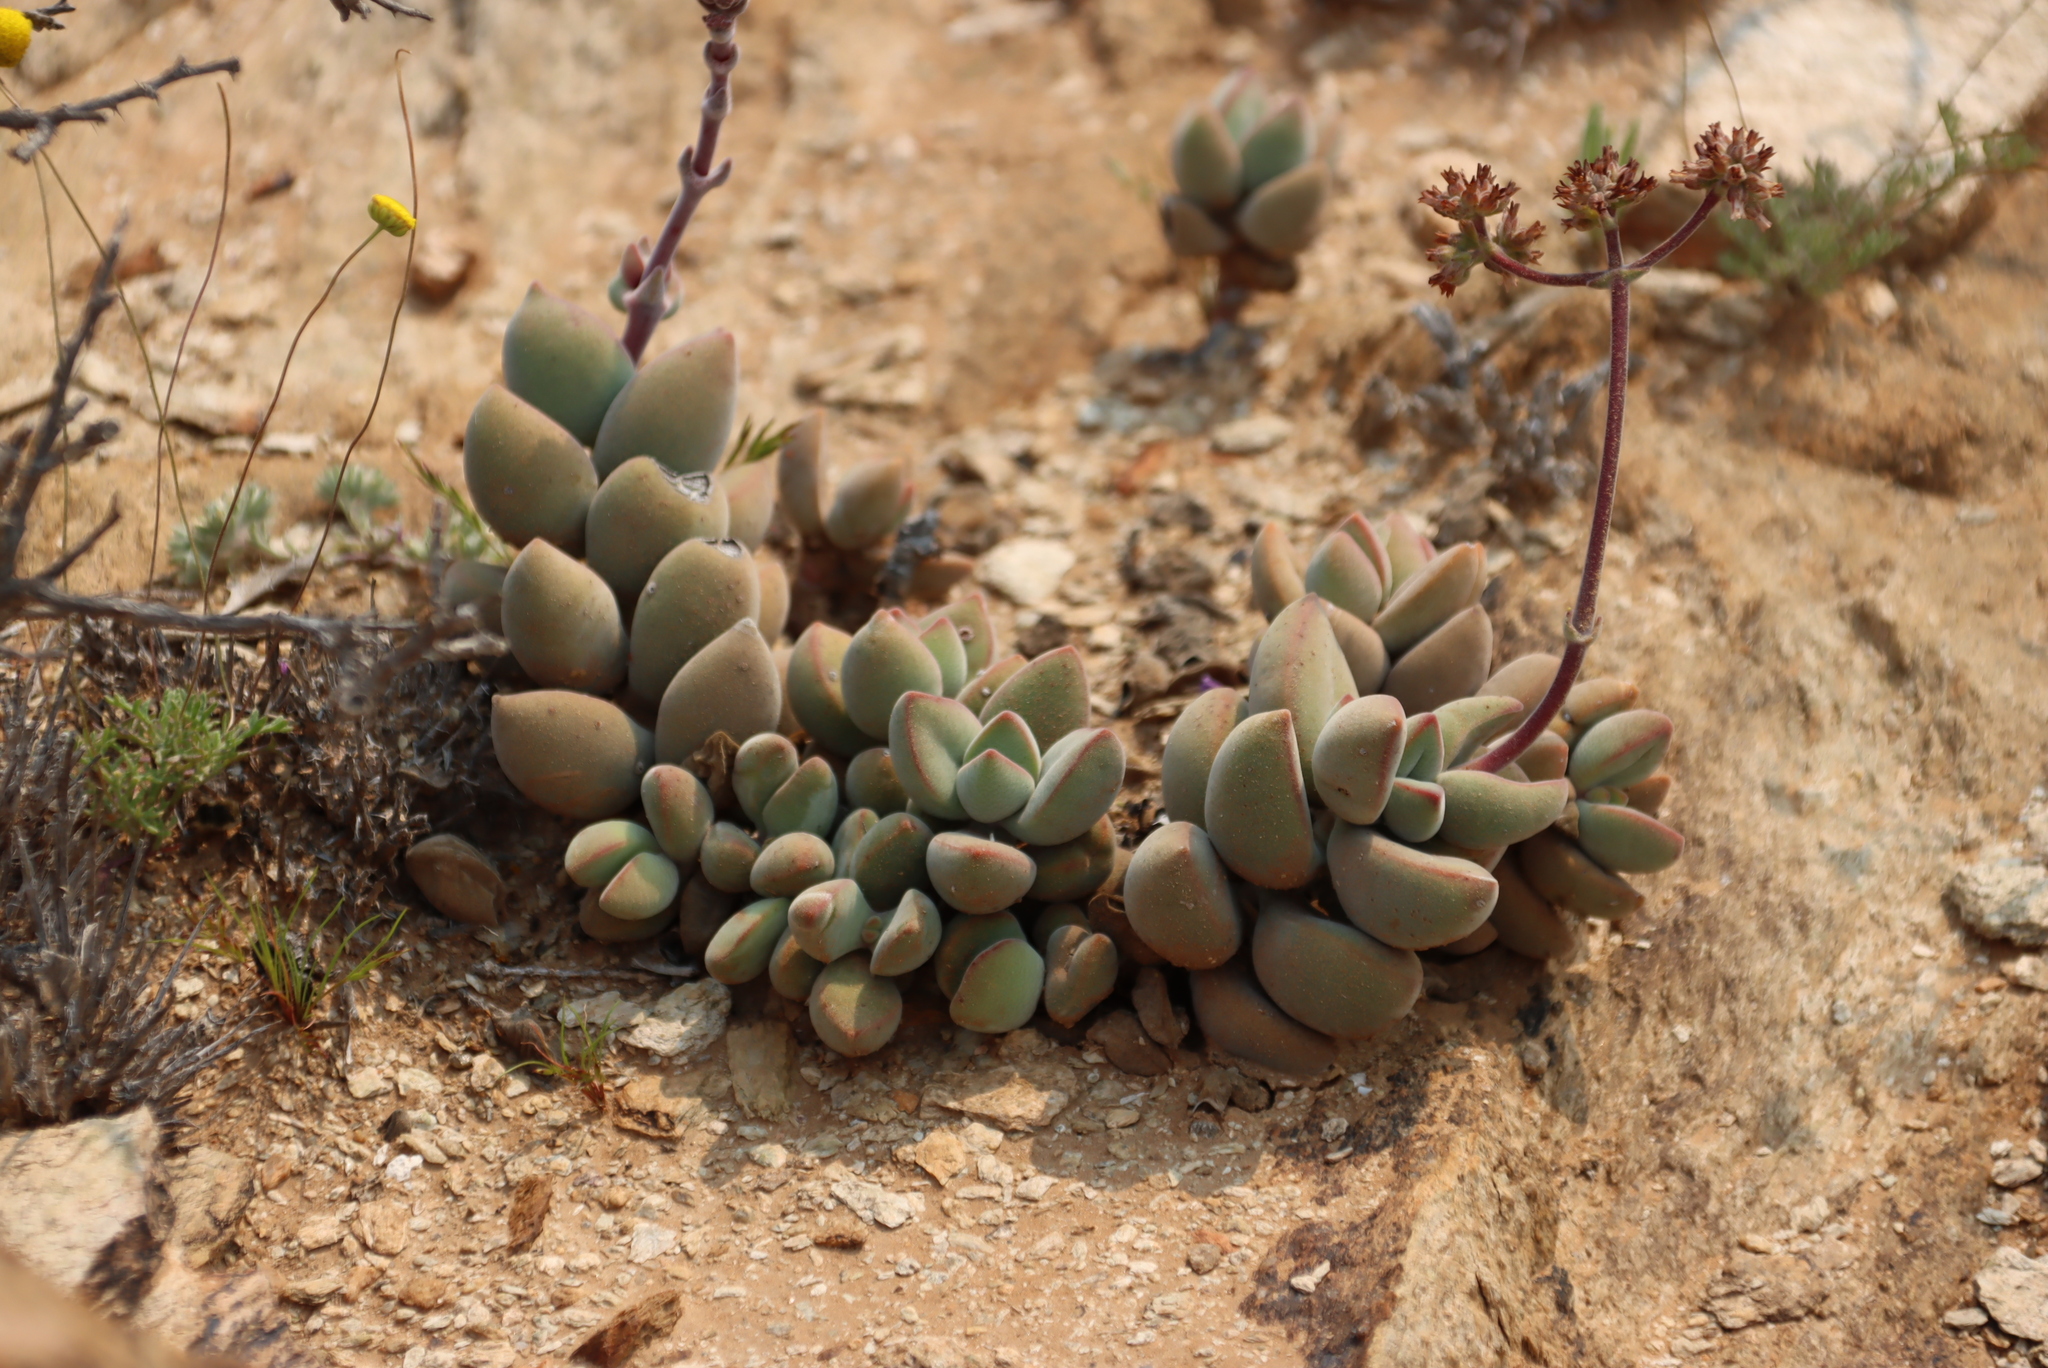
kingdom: Plantae
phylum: Tracheophyta
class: Magnoliopsida
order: Saxifragales
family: Crassulaceae
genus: Crassula
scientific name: Crassula sericea
